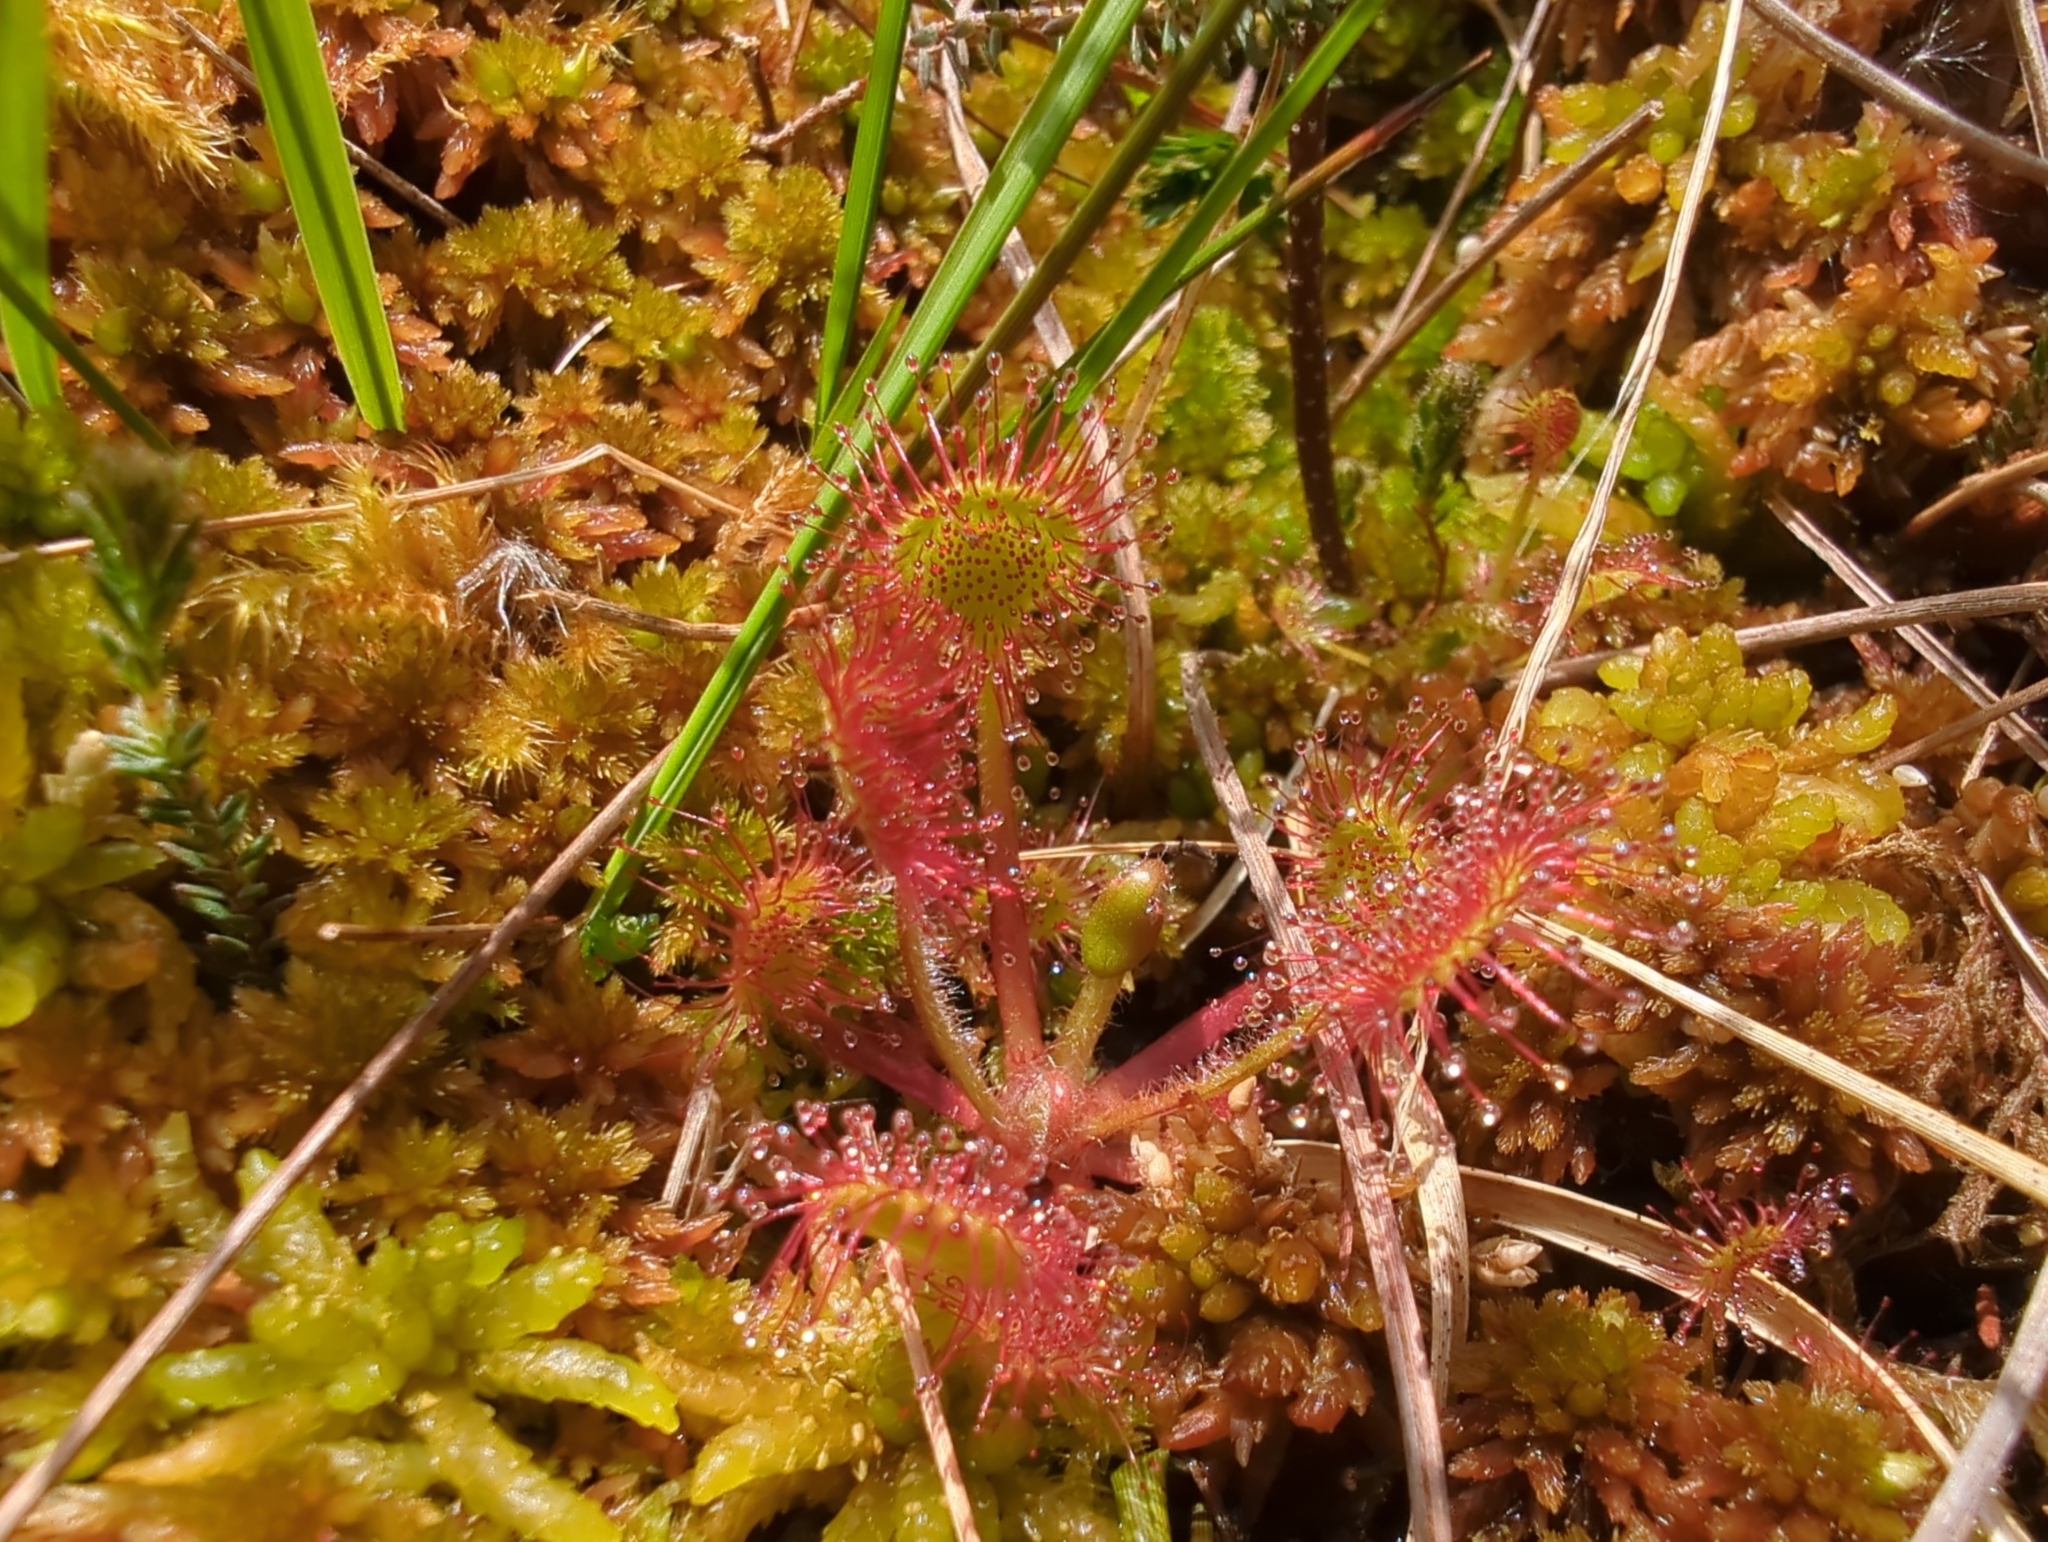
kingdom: Plantae
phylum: Tracheophyta
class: Magnoliopsida
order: Caryophyllales
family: Droseraceae
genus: Drosera
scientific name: Drosera rotundifolia
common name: Round-leaved sundew
